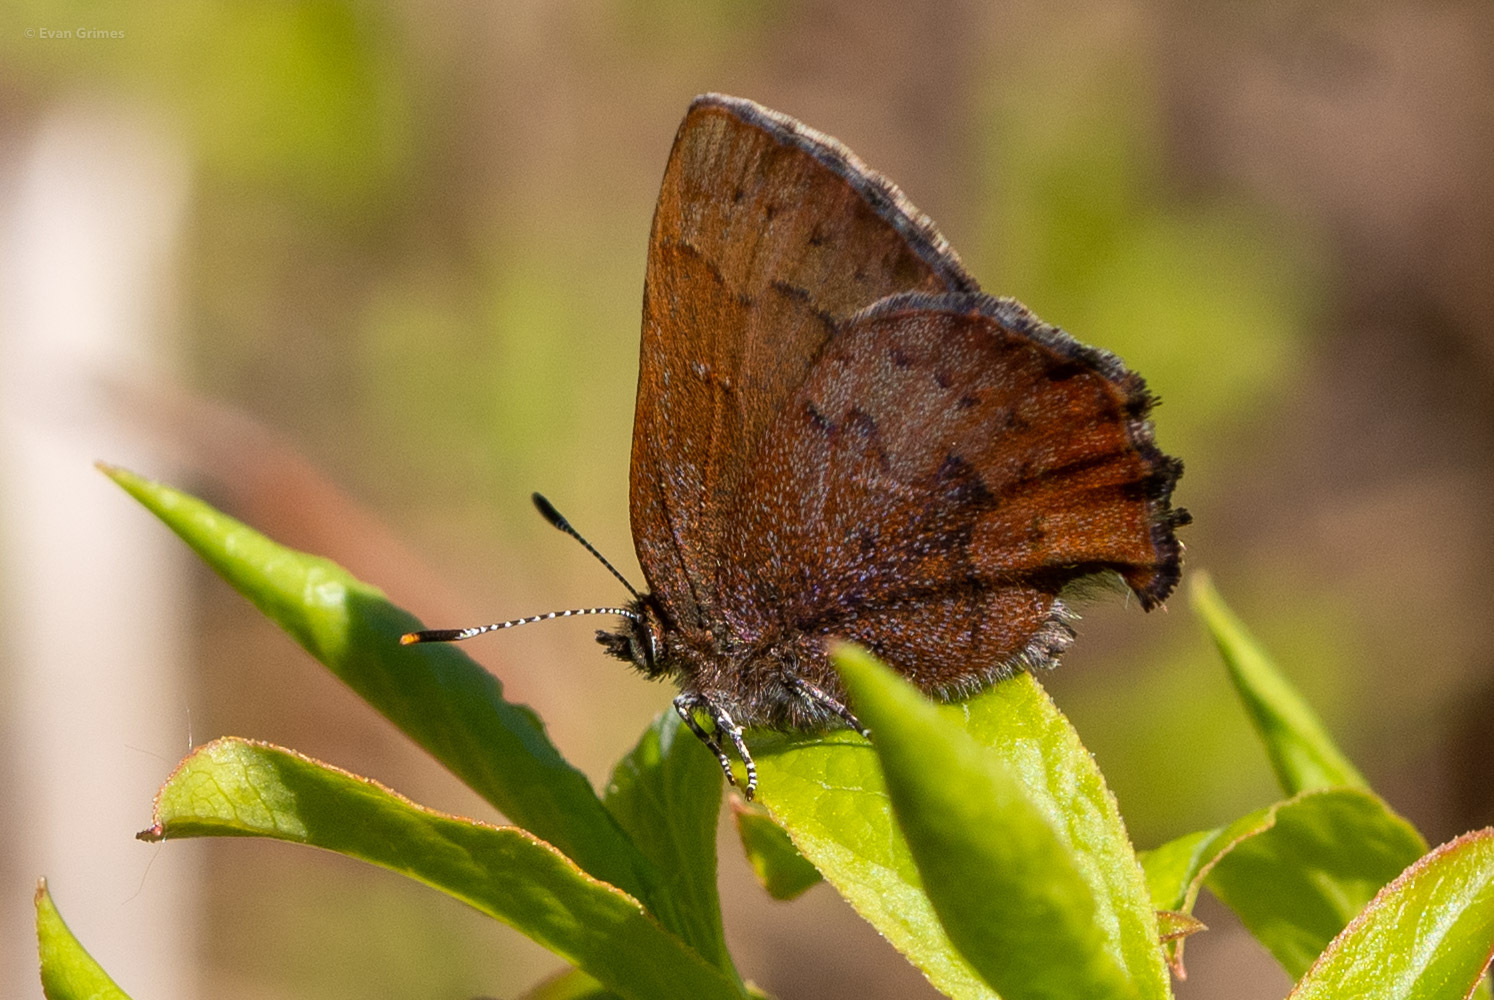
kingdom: Animalia
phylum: Arthropoda
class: Insecta
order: Lepidoptera
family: Lycaenidae
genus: Incisalia
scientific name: Incisalia irioides
